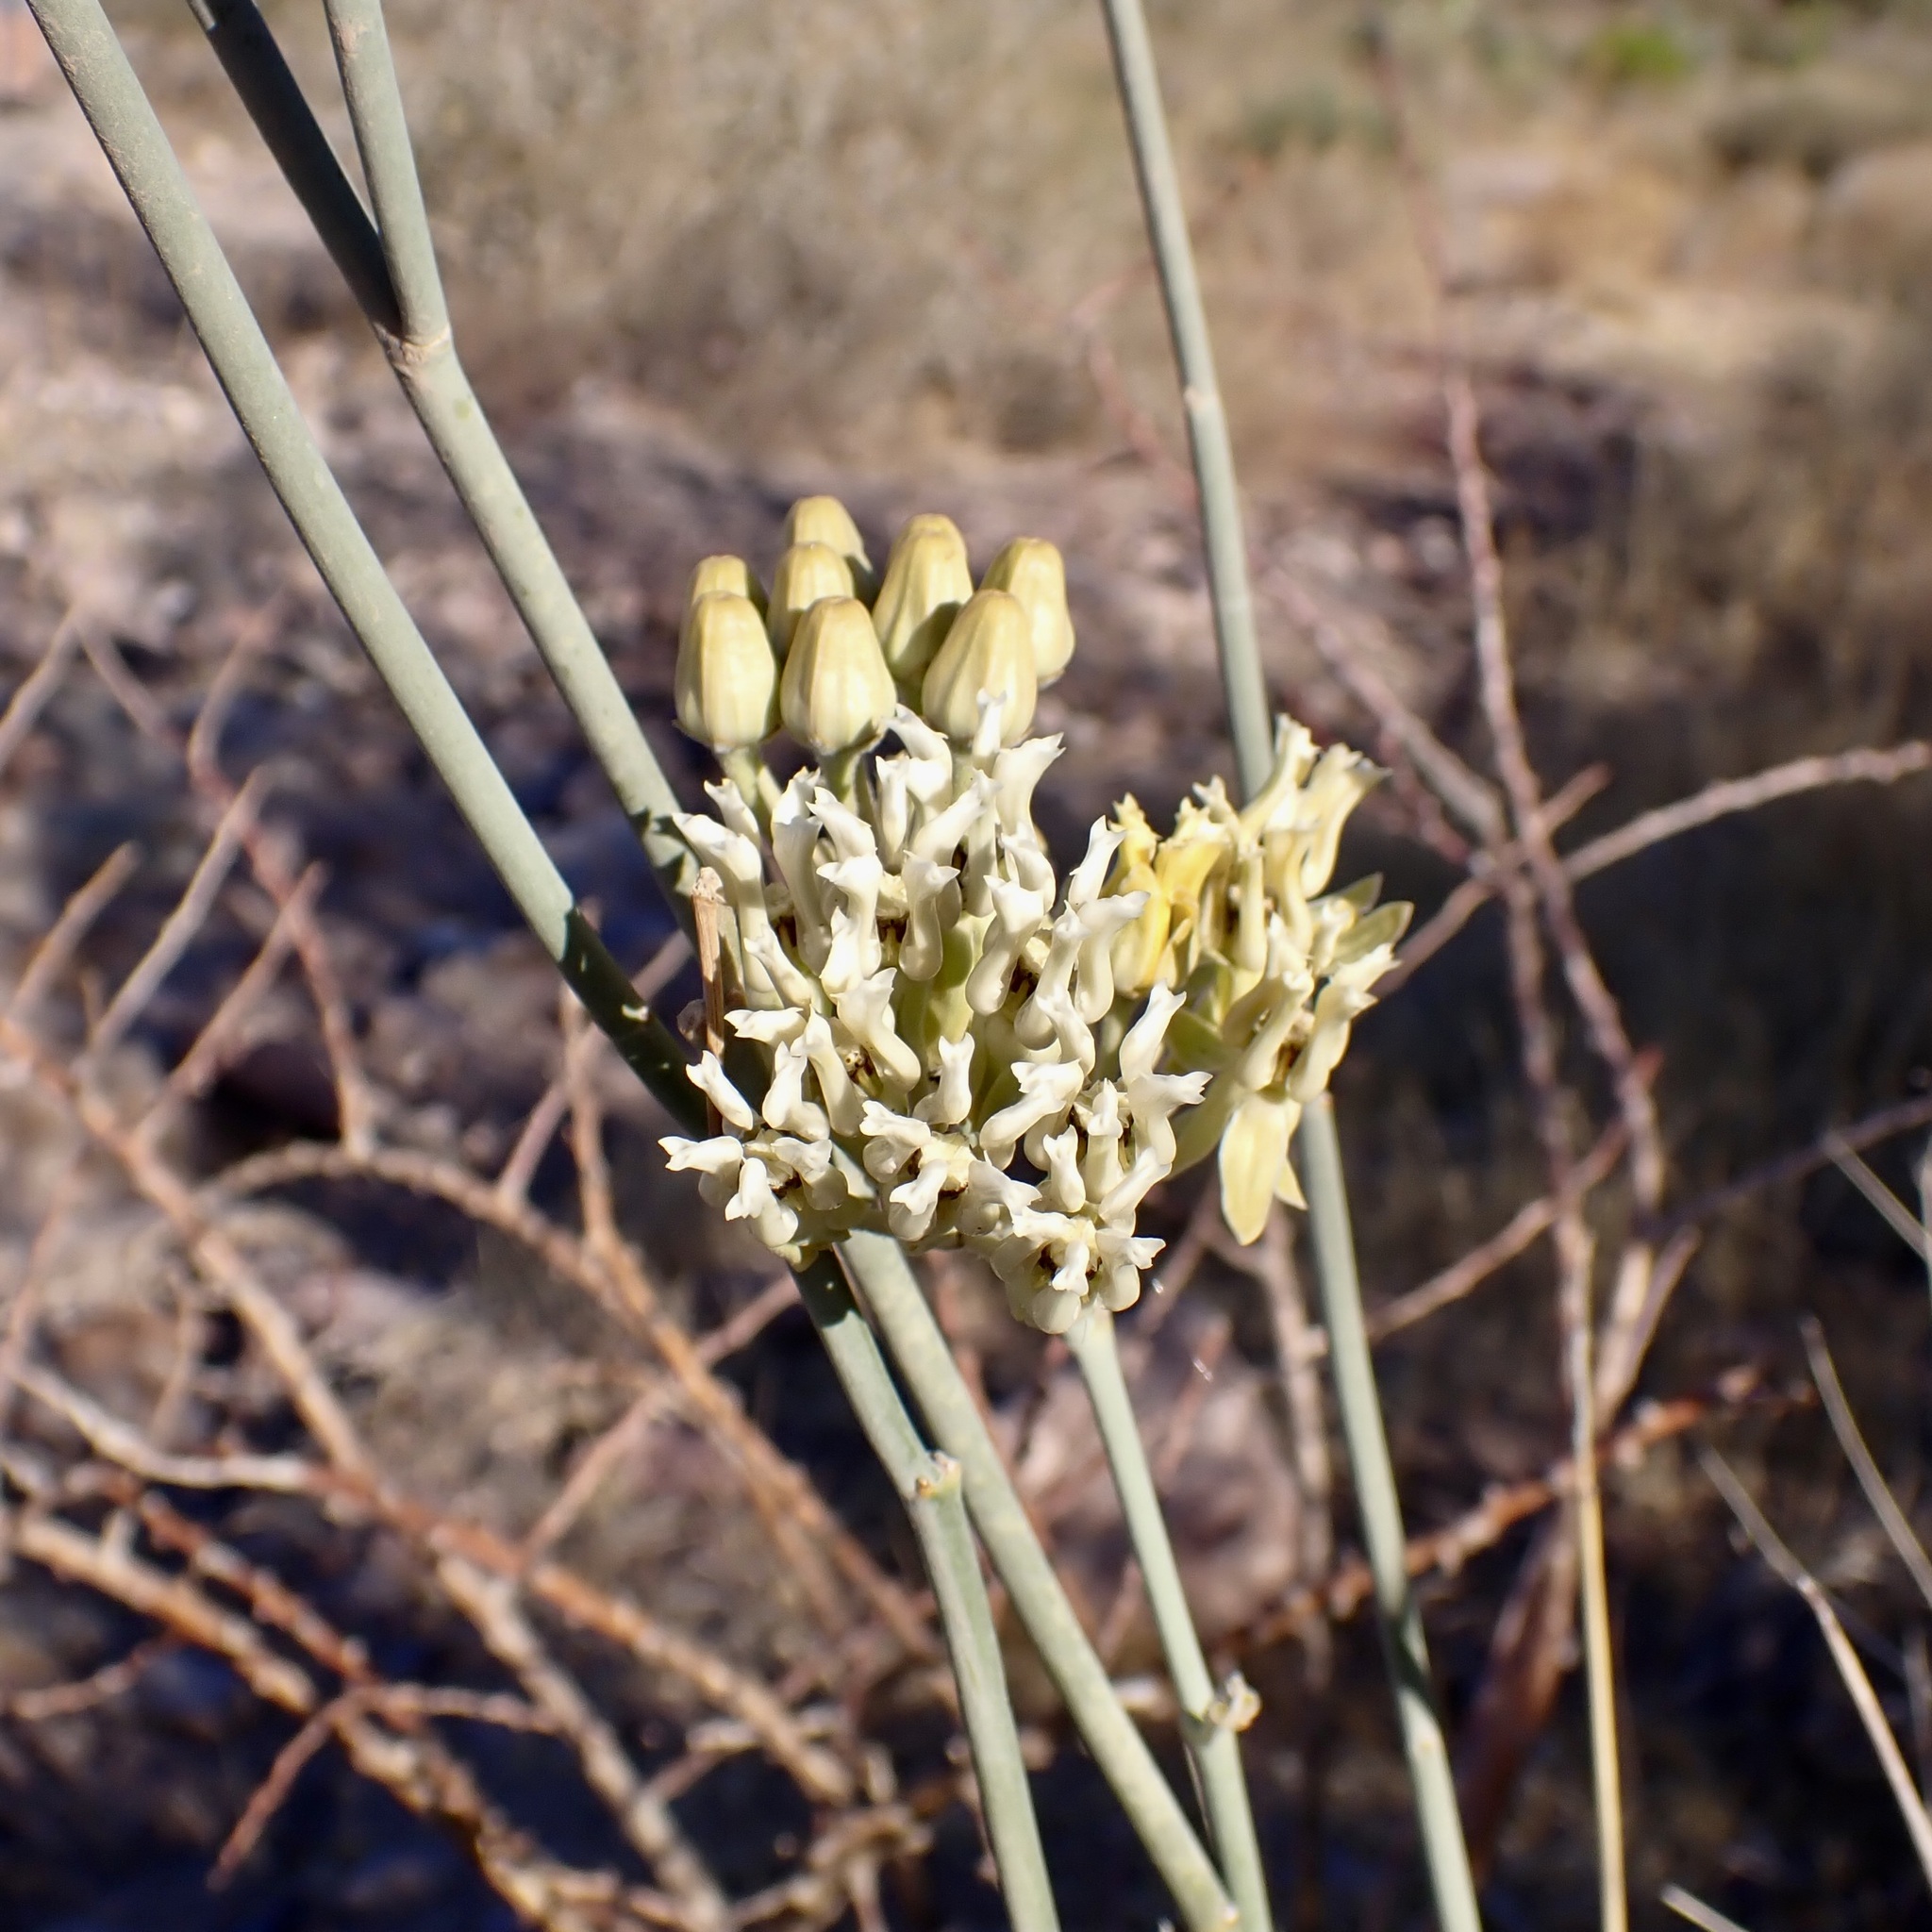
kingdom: Plantae
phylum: Tracheophyta
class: Magnoliopsida
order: Gentianales
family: Apocynaceae
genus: Asclepias
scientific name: Asclepias subulata
